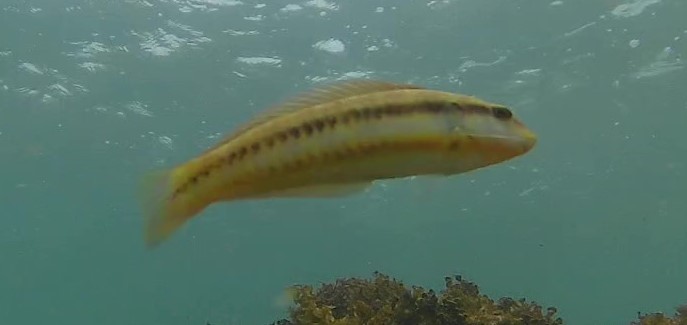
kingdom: Animalia
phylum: Chordata
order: Perciformes
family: Labridae
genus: Halichoeres
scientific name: Halichoeres bivittatus
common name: Slippery dick
